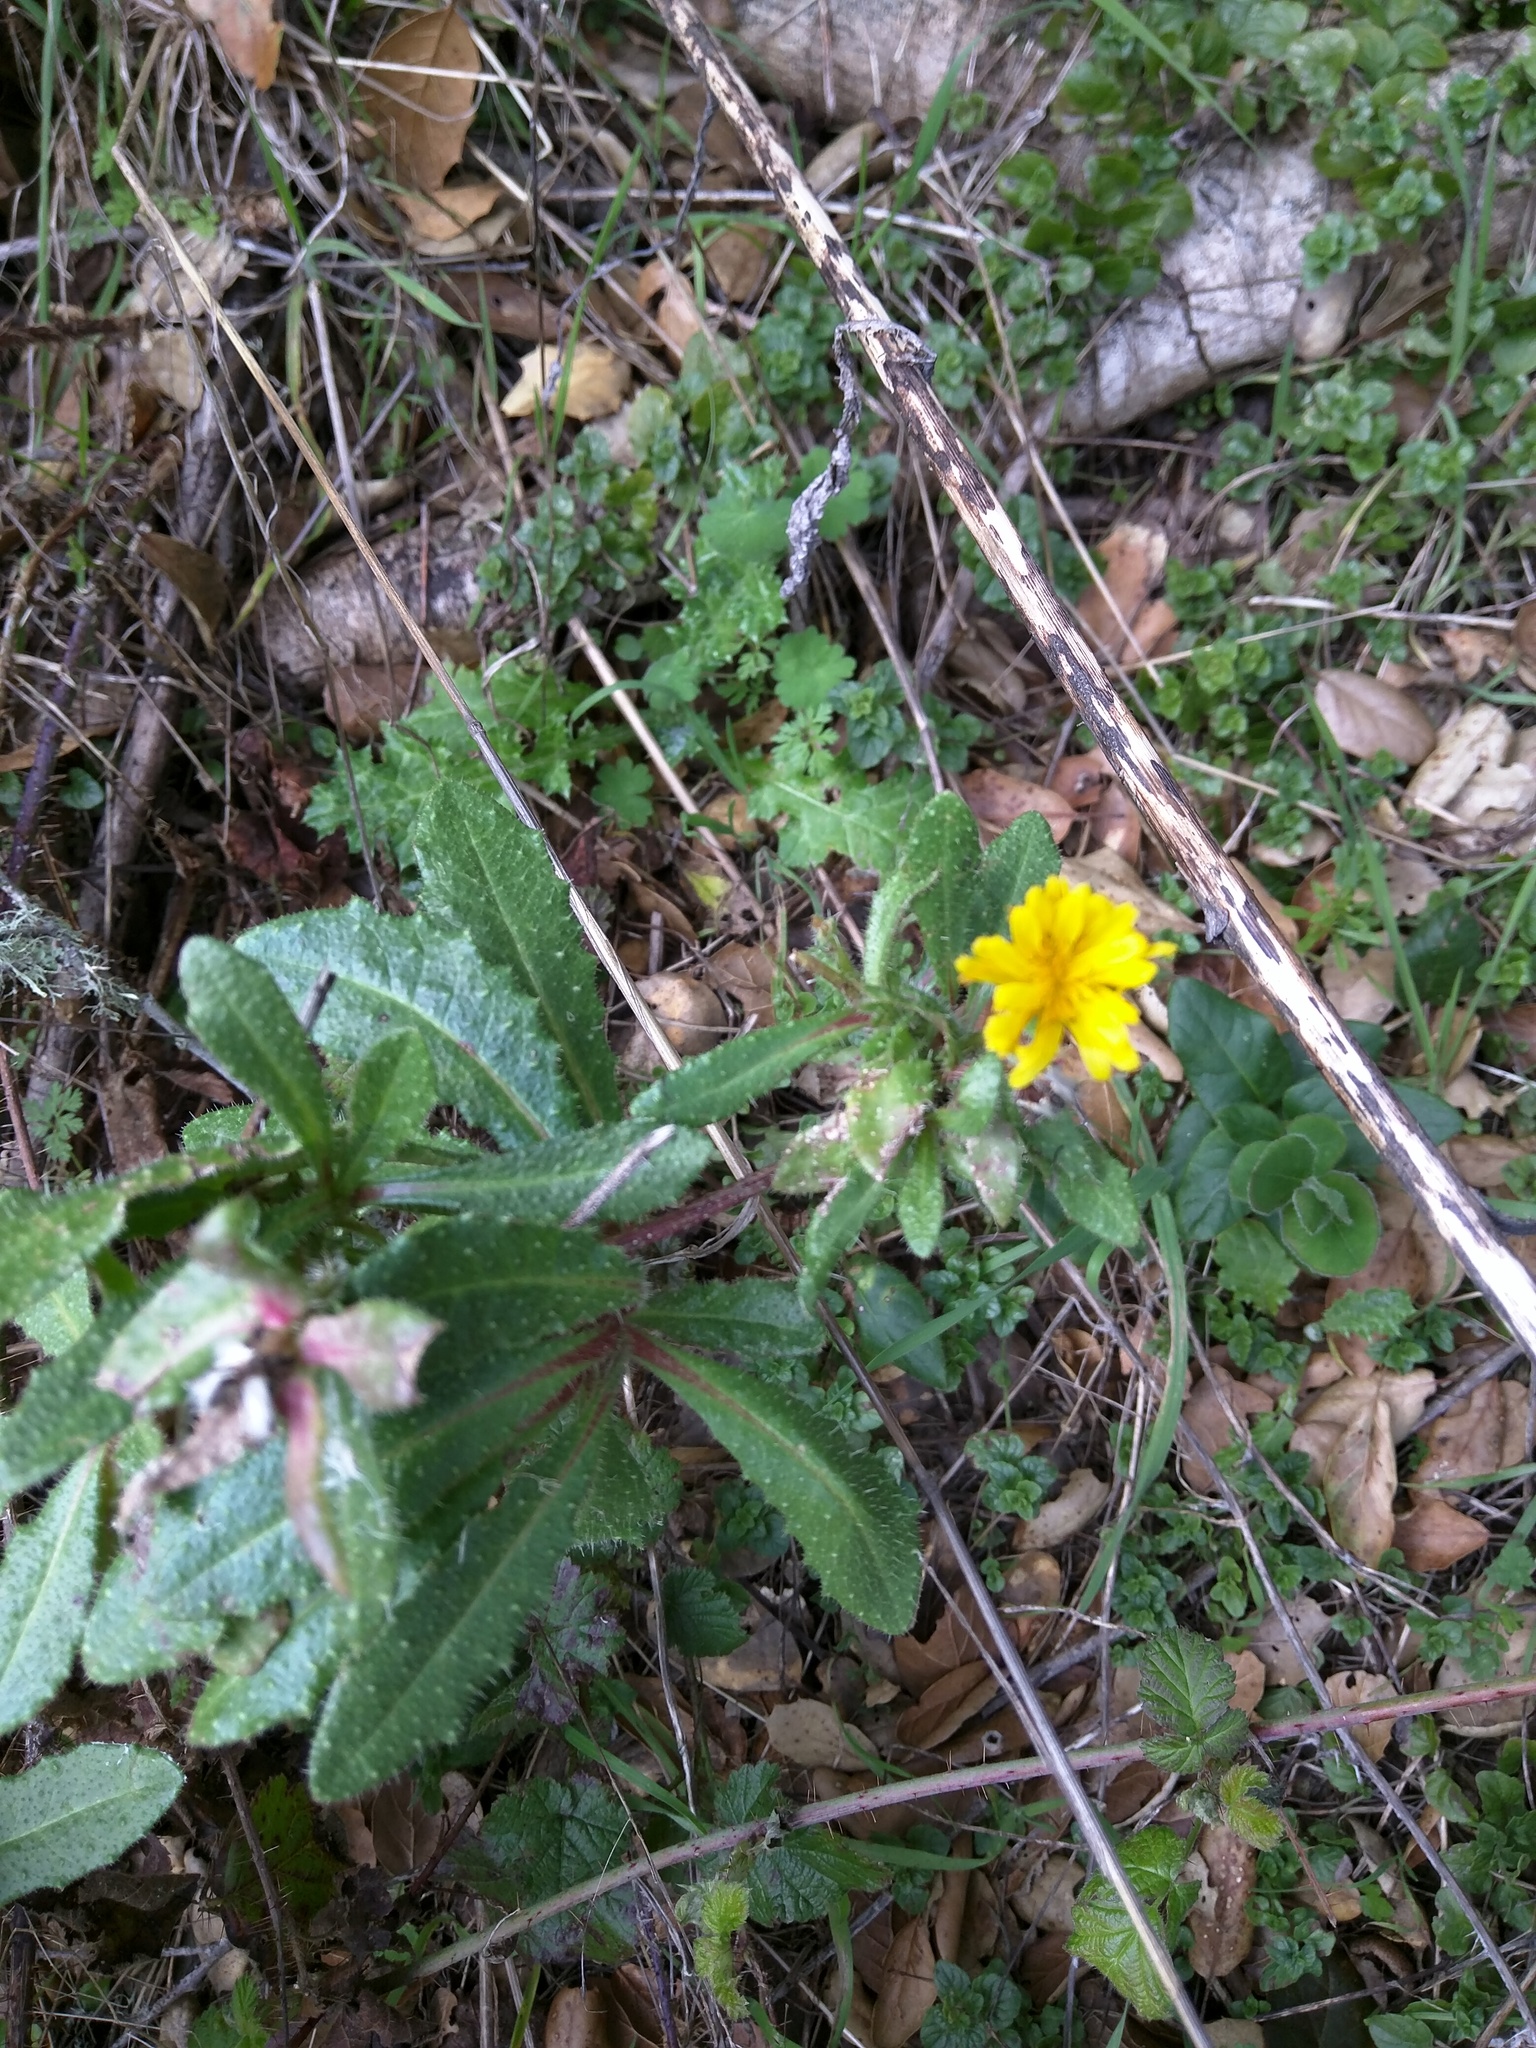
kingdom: Plantae
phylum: Tracheophyta
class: Magnoliopsida
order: Asterales
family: Asteraceae
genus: Helminthotheca
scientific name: Helminthotheca echioides
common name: Ox-tongue
